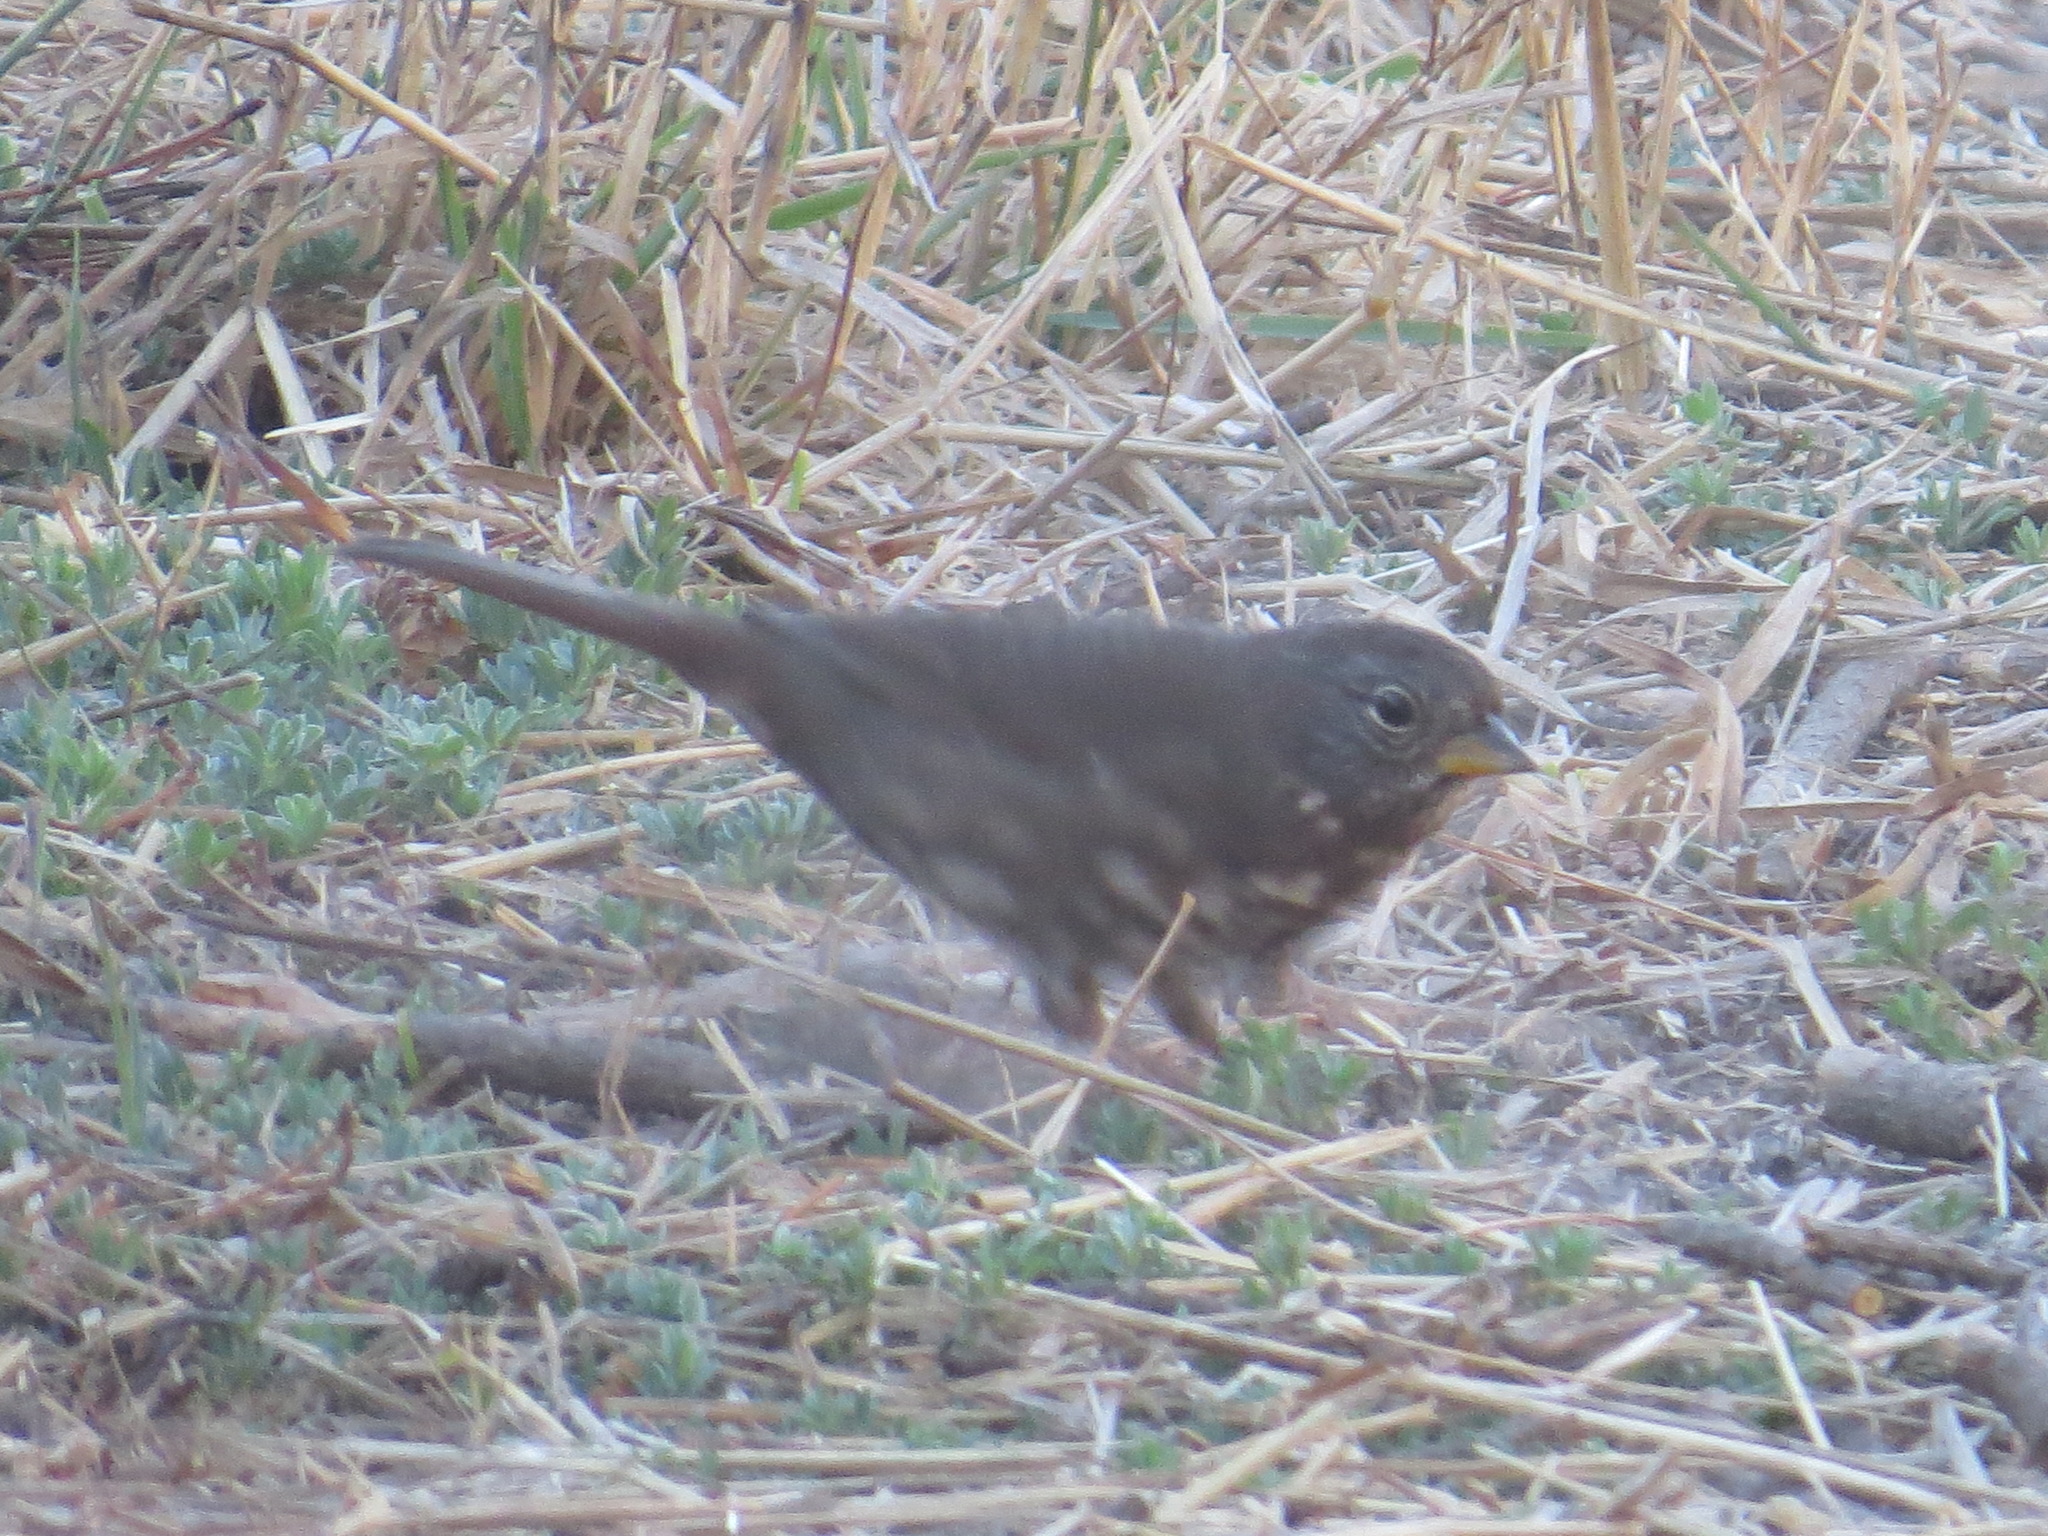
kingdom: Animalia
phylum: Chordata
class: Aves
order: Passeriformes
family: Passerellidae
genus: Passerella
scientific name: Passerella iliaca
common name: Fox sparrow
